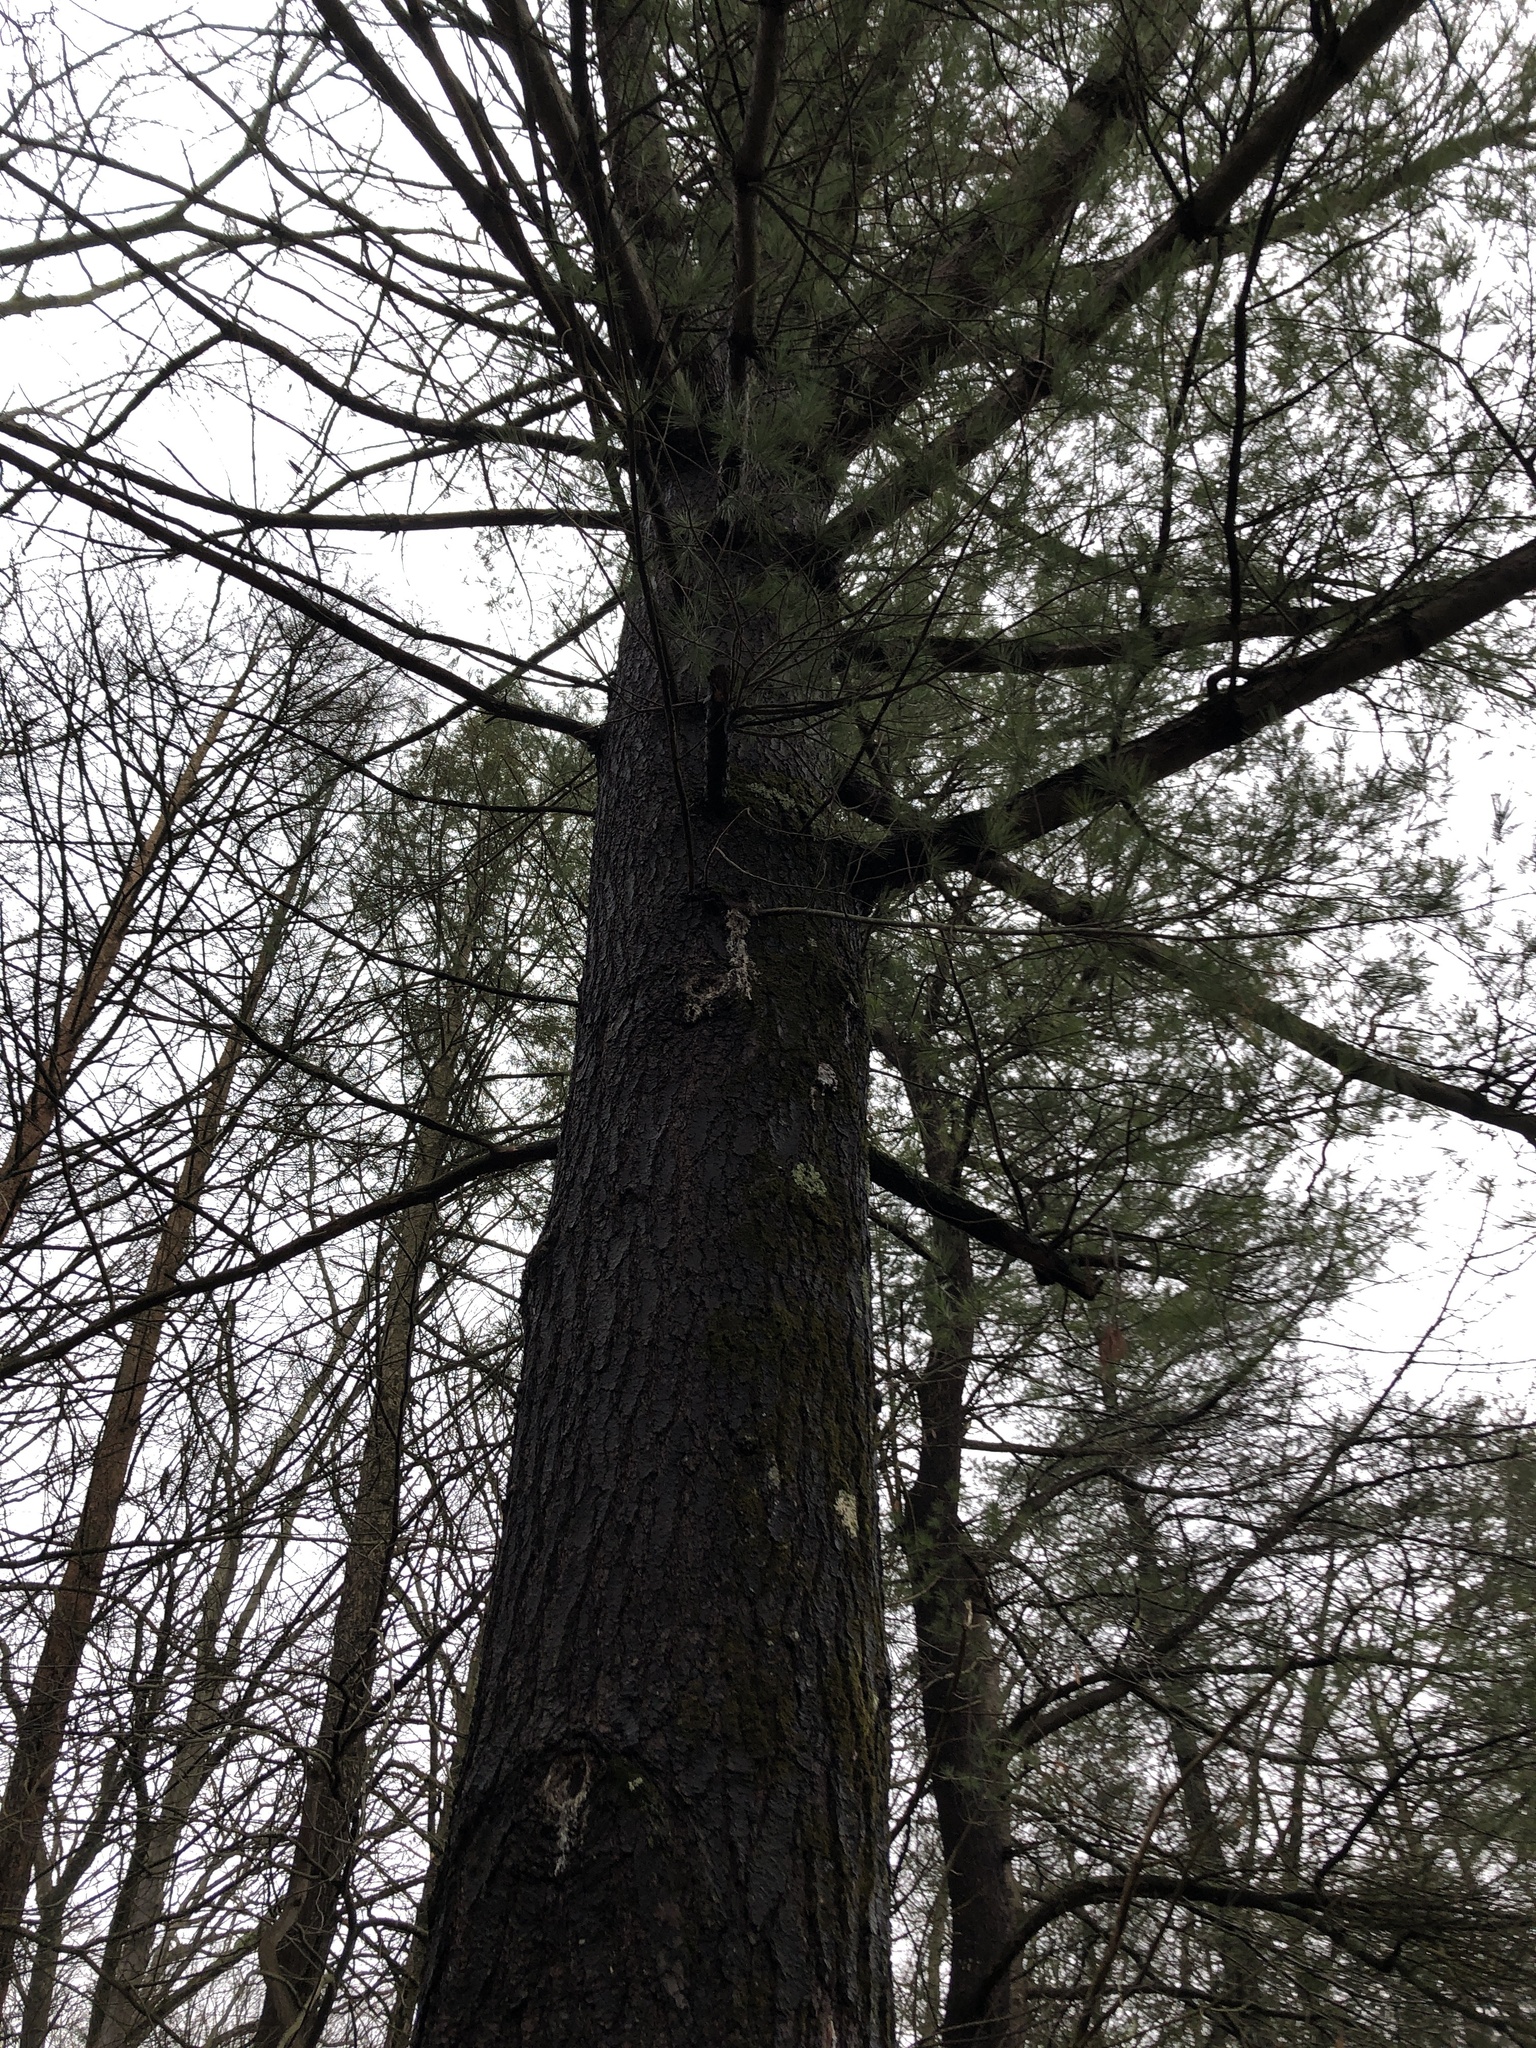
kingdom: Plantae
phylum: Tracheophyta
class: Pinopsida
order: Pinales
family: Pinaceae
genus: Pinus
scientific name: Pinus strobus
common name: Weymouth pine
